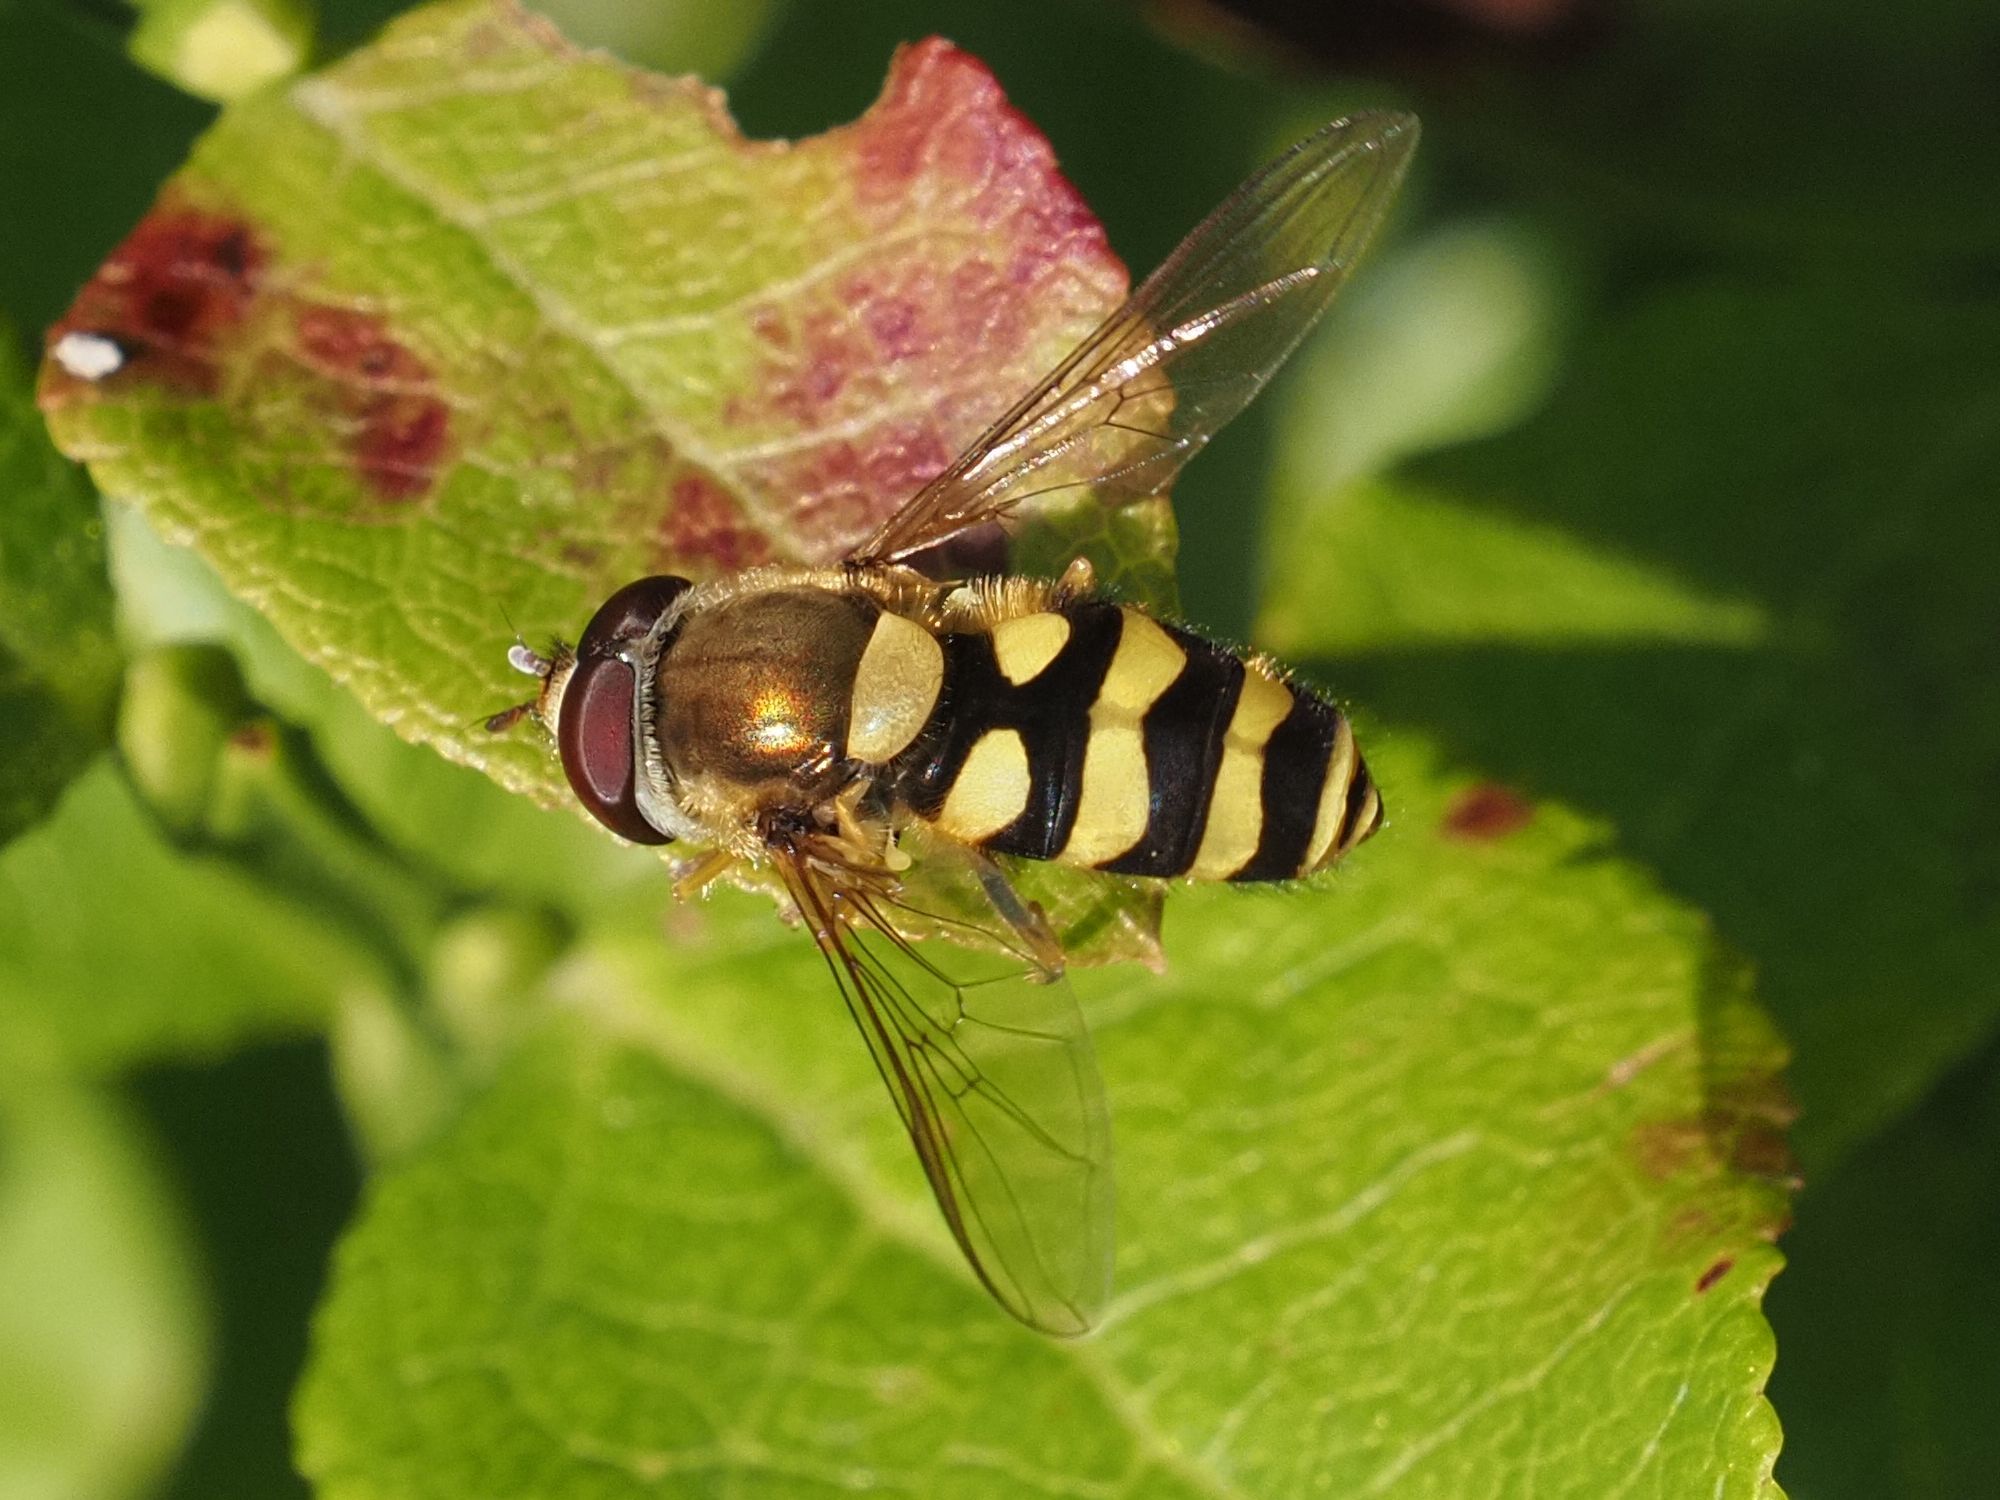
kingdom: Animalia
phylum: Arthropoda
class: Insecta
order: Diptera
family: Syrphidae
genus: Syrphus
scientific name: Syrphus
